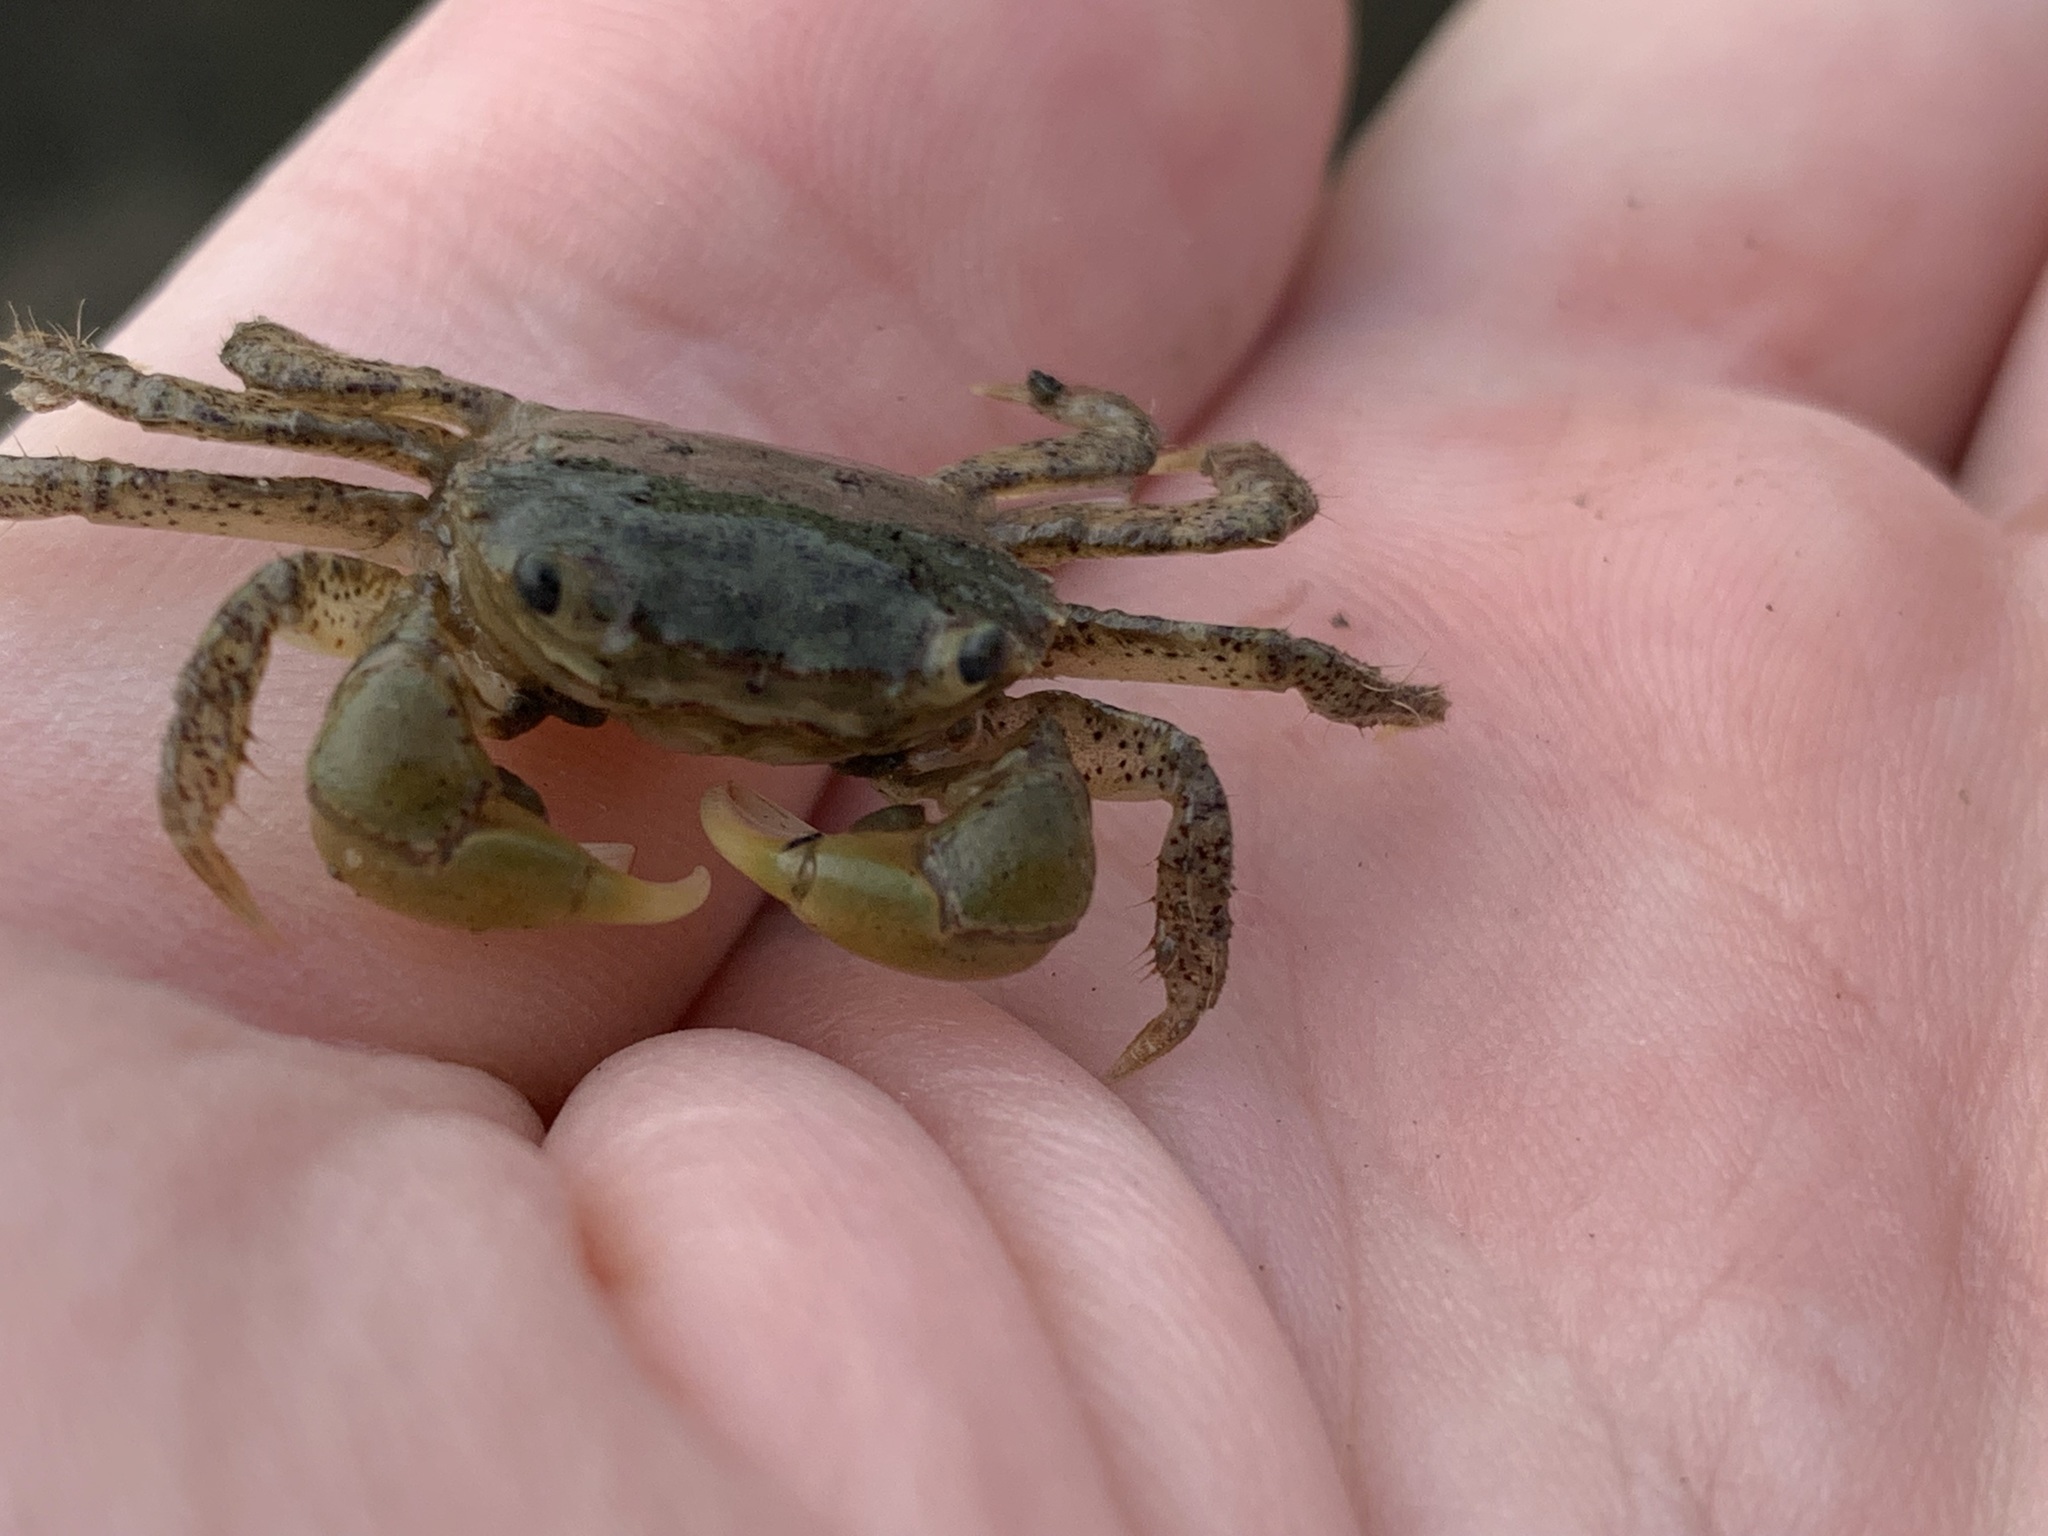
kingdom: Animalia
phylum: Arthropoda
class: Malacostraca
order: Decapoda
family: Varunidae
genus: Hemigrapsus
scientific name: Hemigrapsus oregonensis
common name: Yellow shore crab
